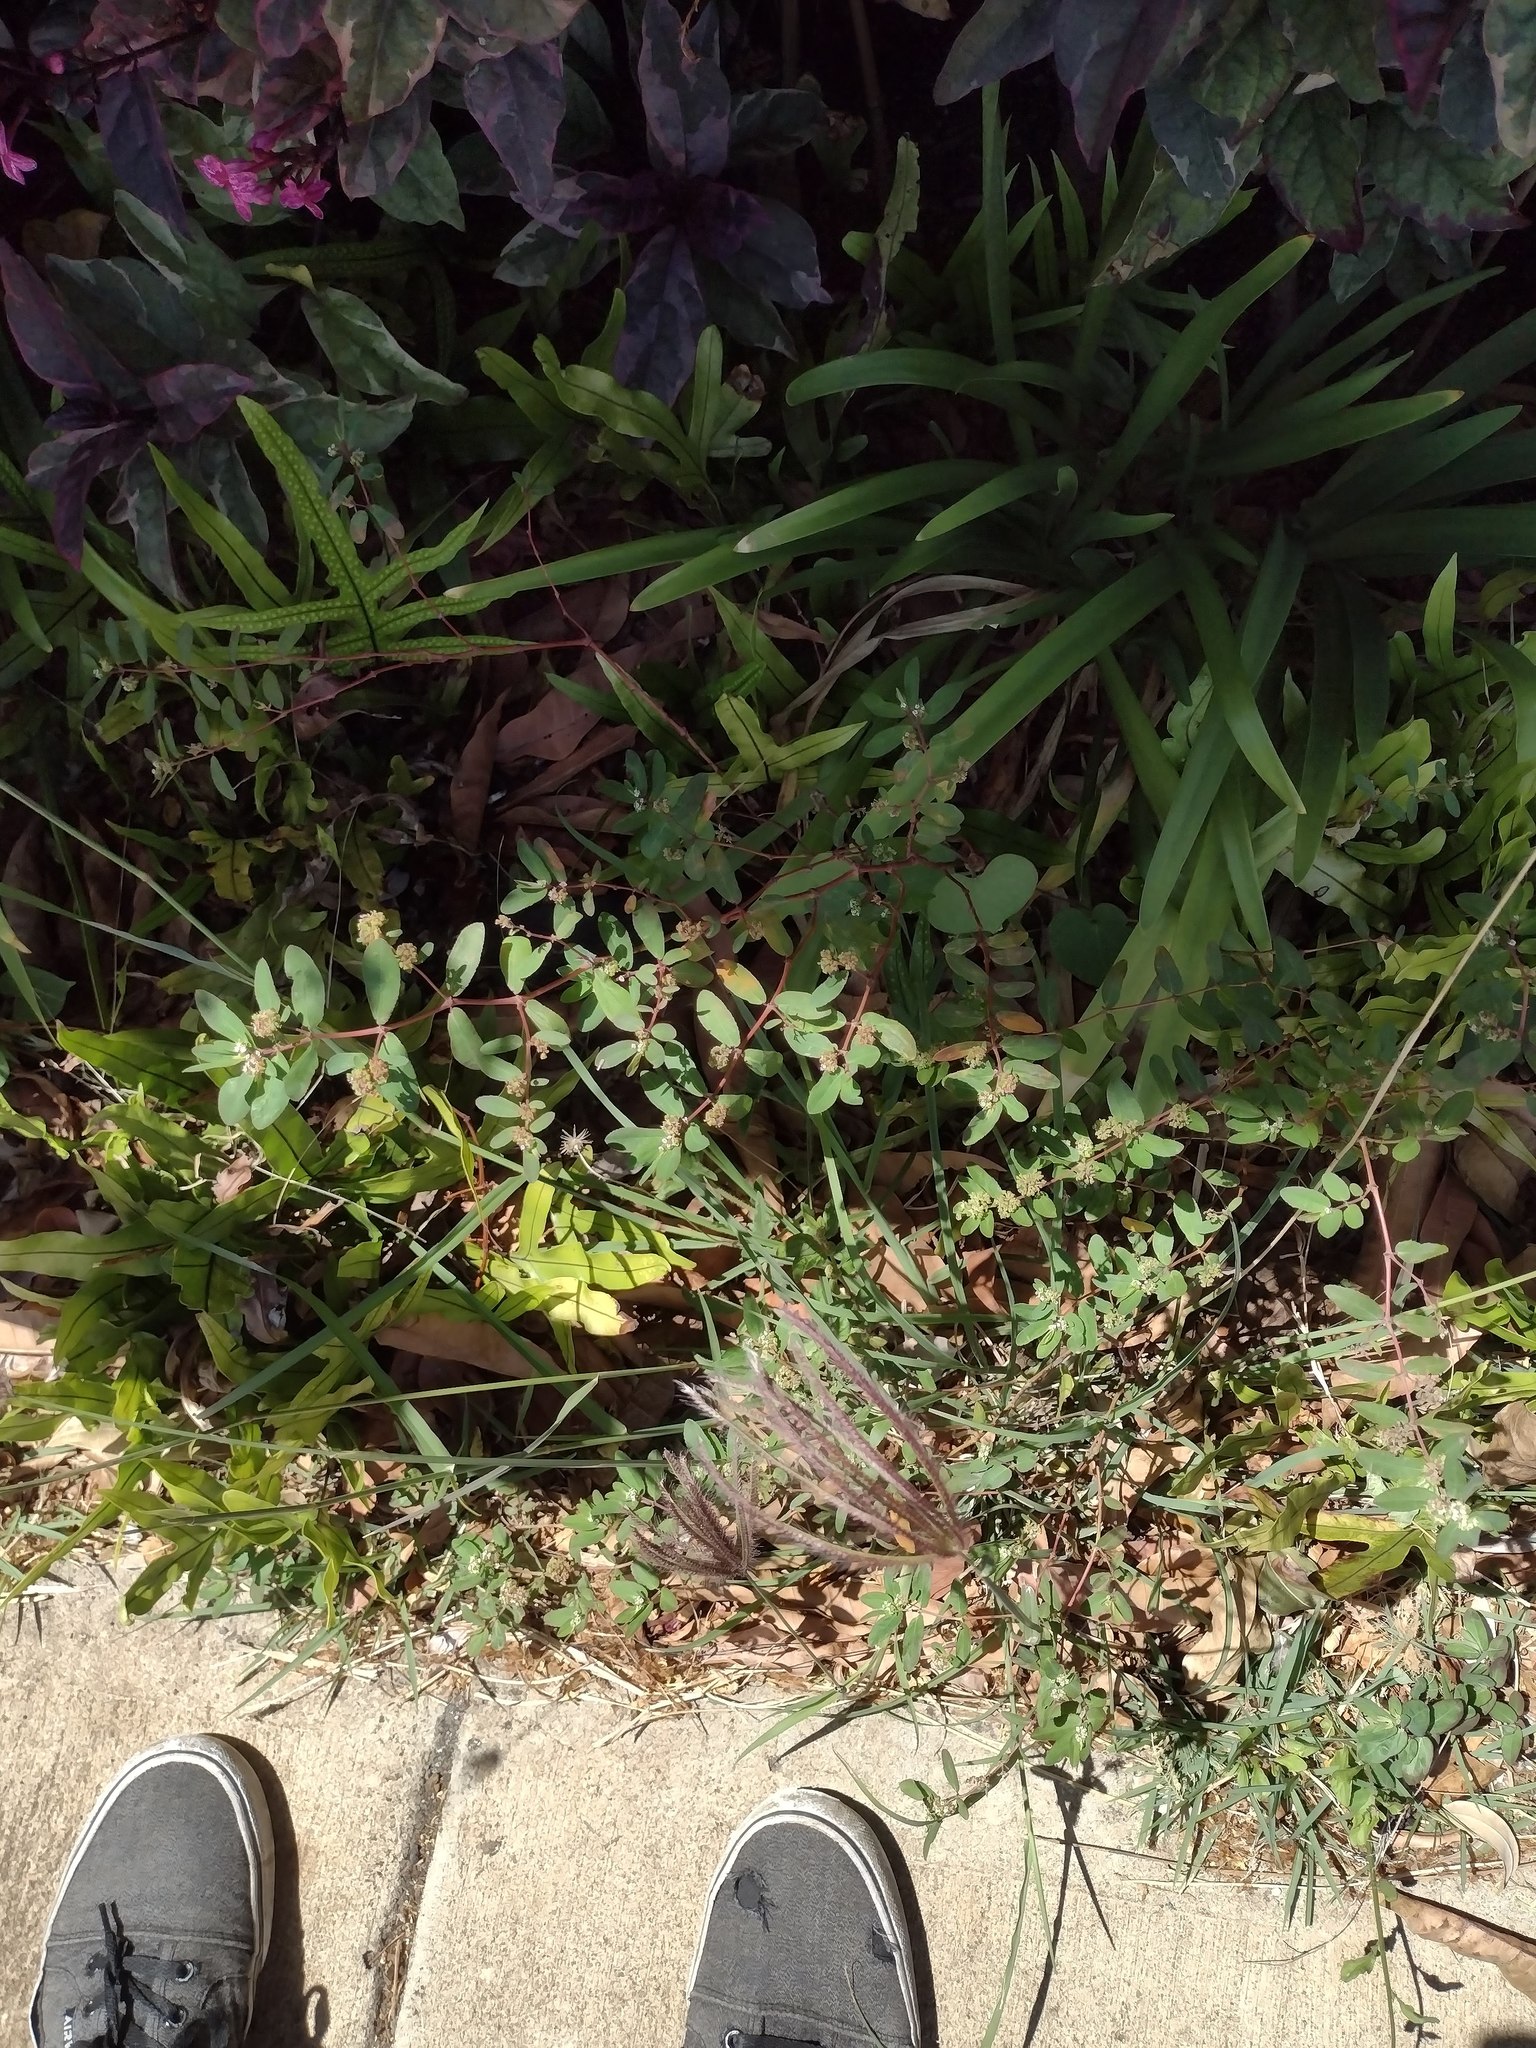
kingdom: Plantae
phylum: Tracheophyta
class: Magnoliopsida
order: Malpighiales
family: Euphorbiaceae
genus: Euphorbia
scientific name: Euphorbia hypericifolia
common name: Graceful sandmat
